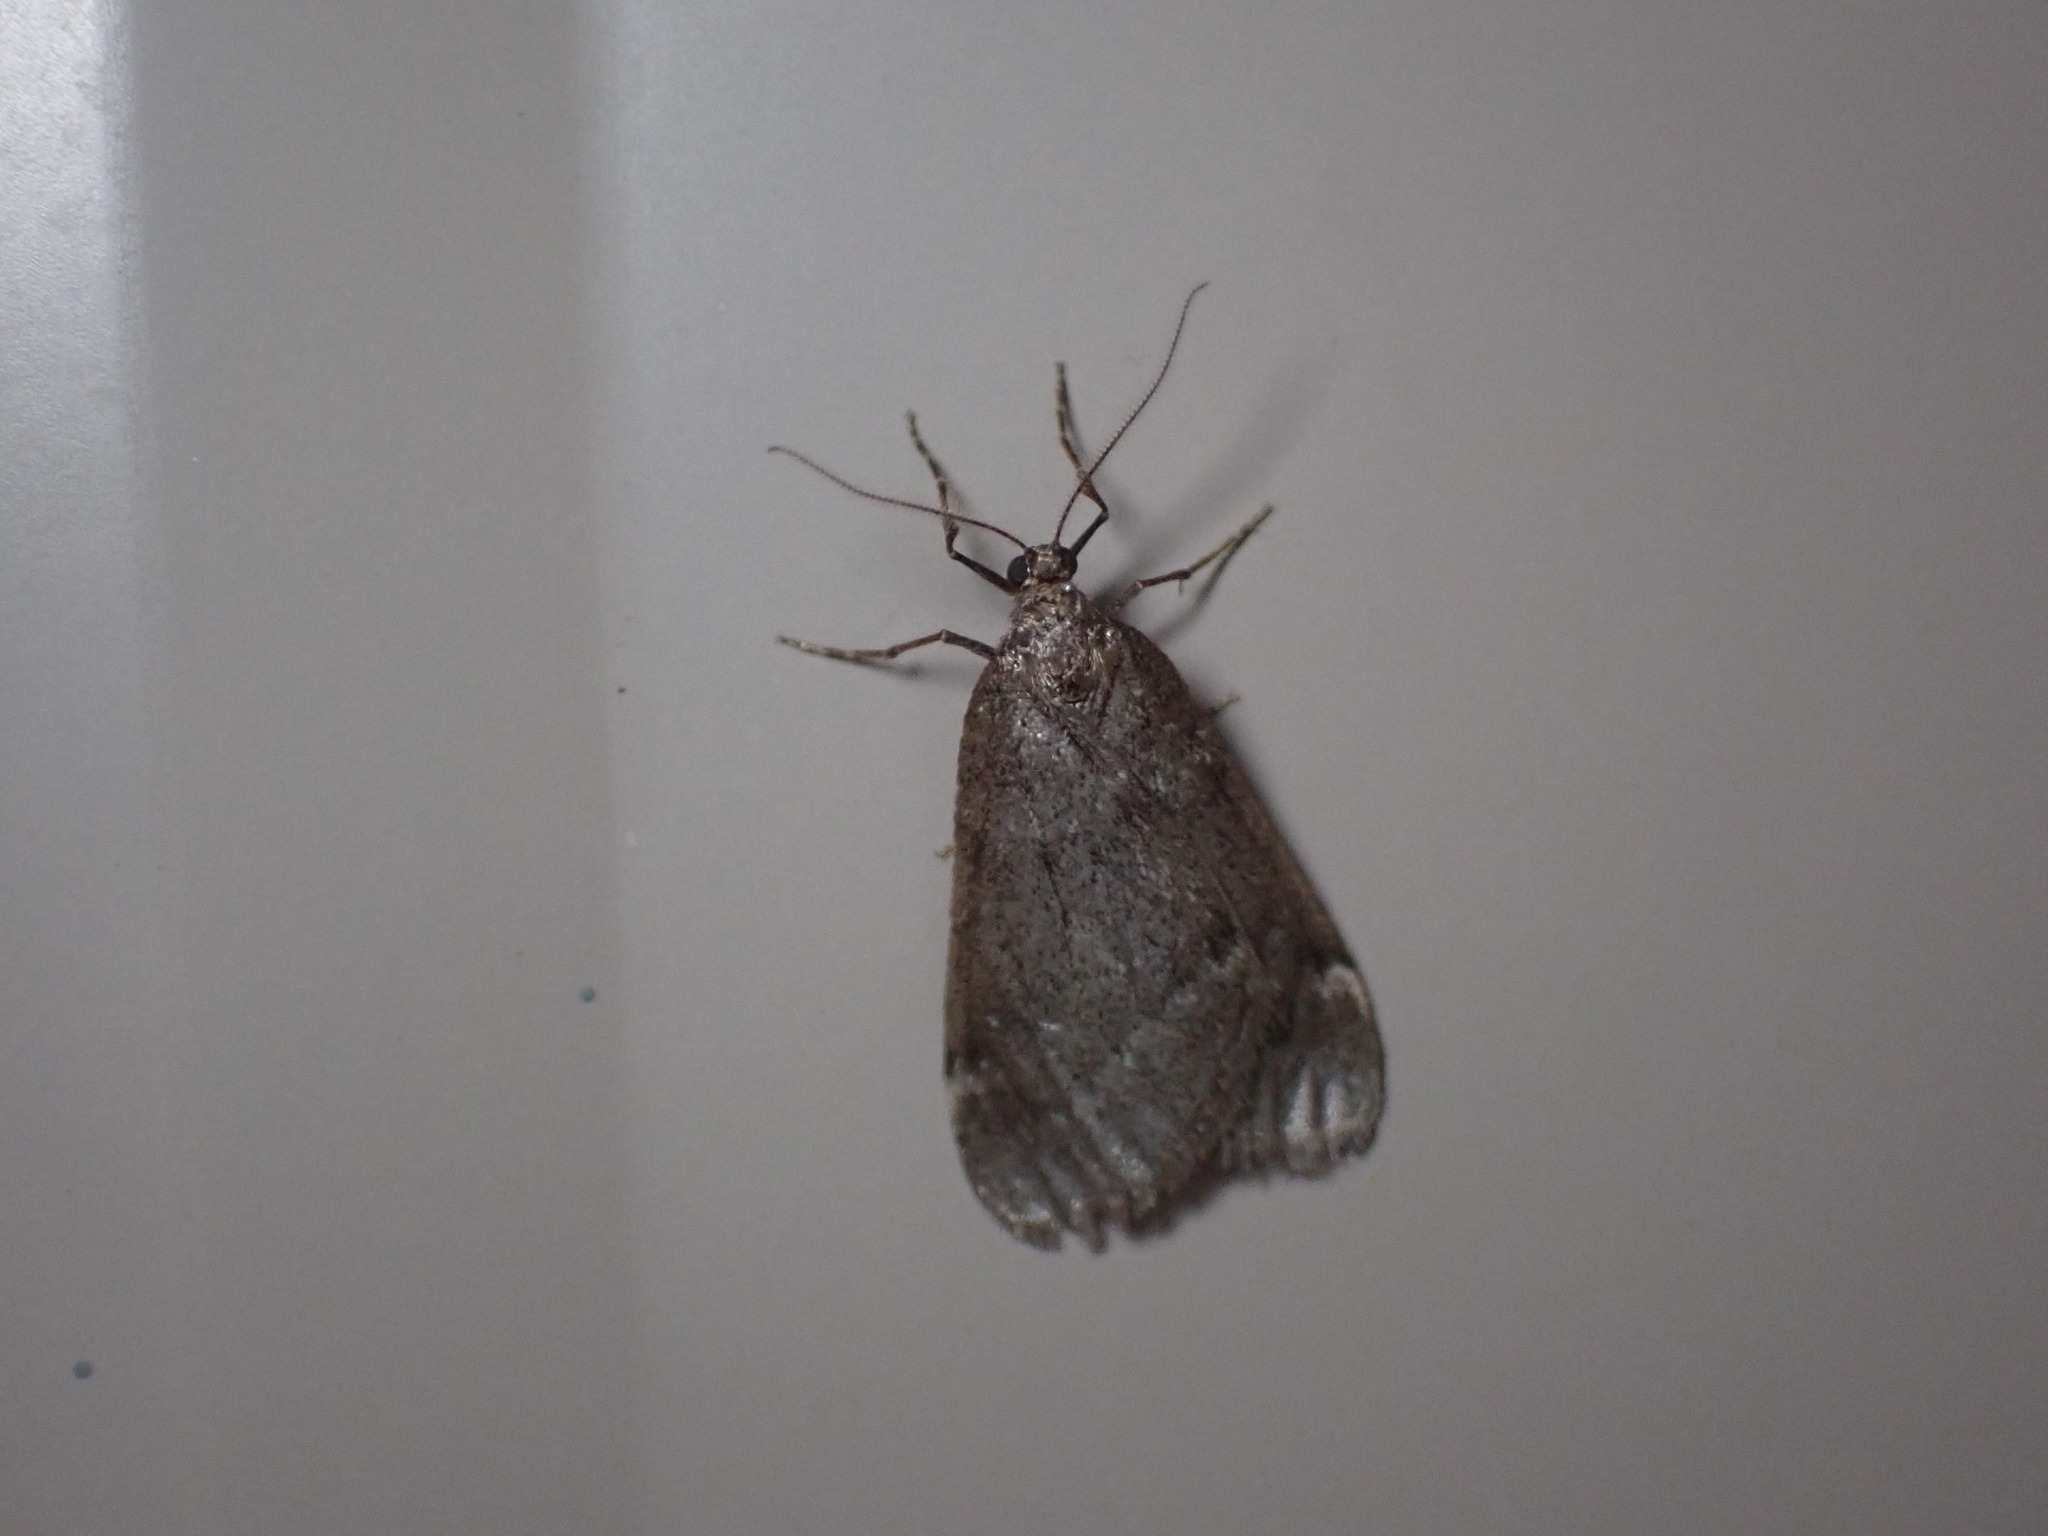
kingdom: Animalia
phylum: Arthropoda
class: Insecta
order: Lepidoptera
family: Geometridae
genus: Alsophila
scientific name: Alsophila pometaria
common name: Fall cankerworm
